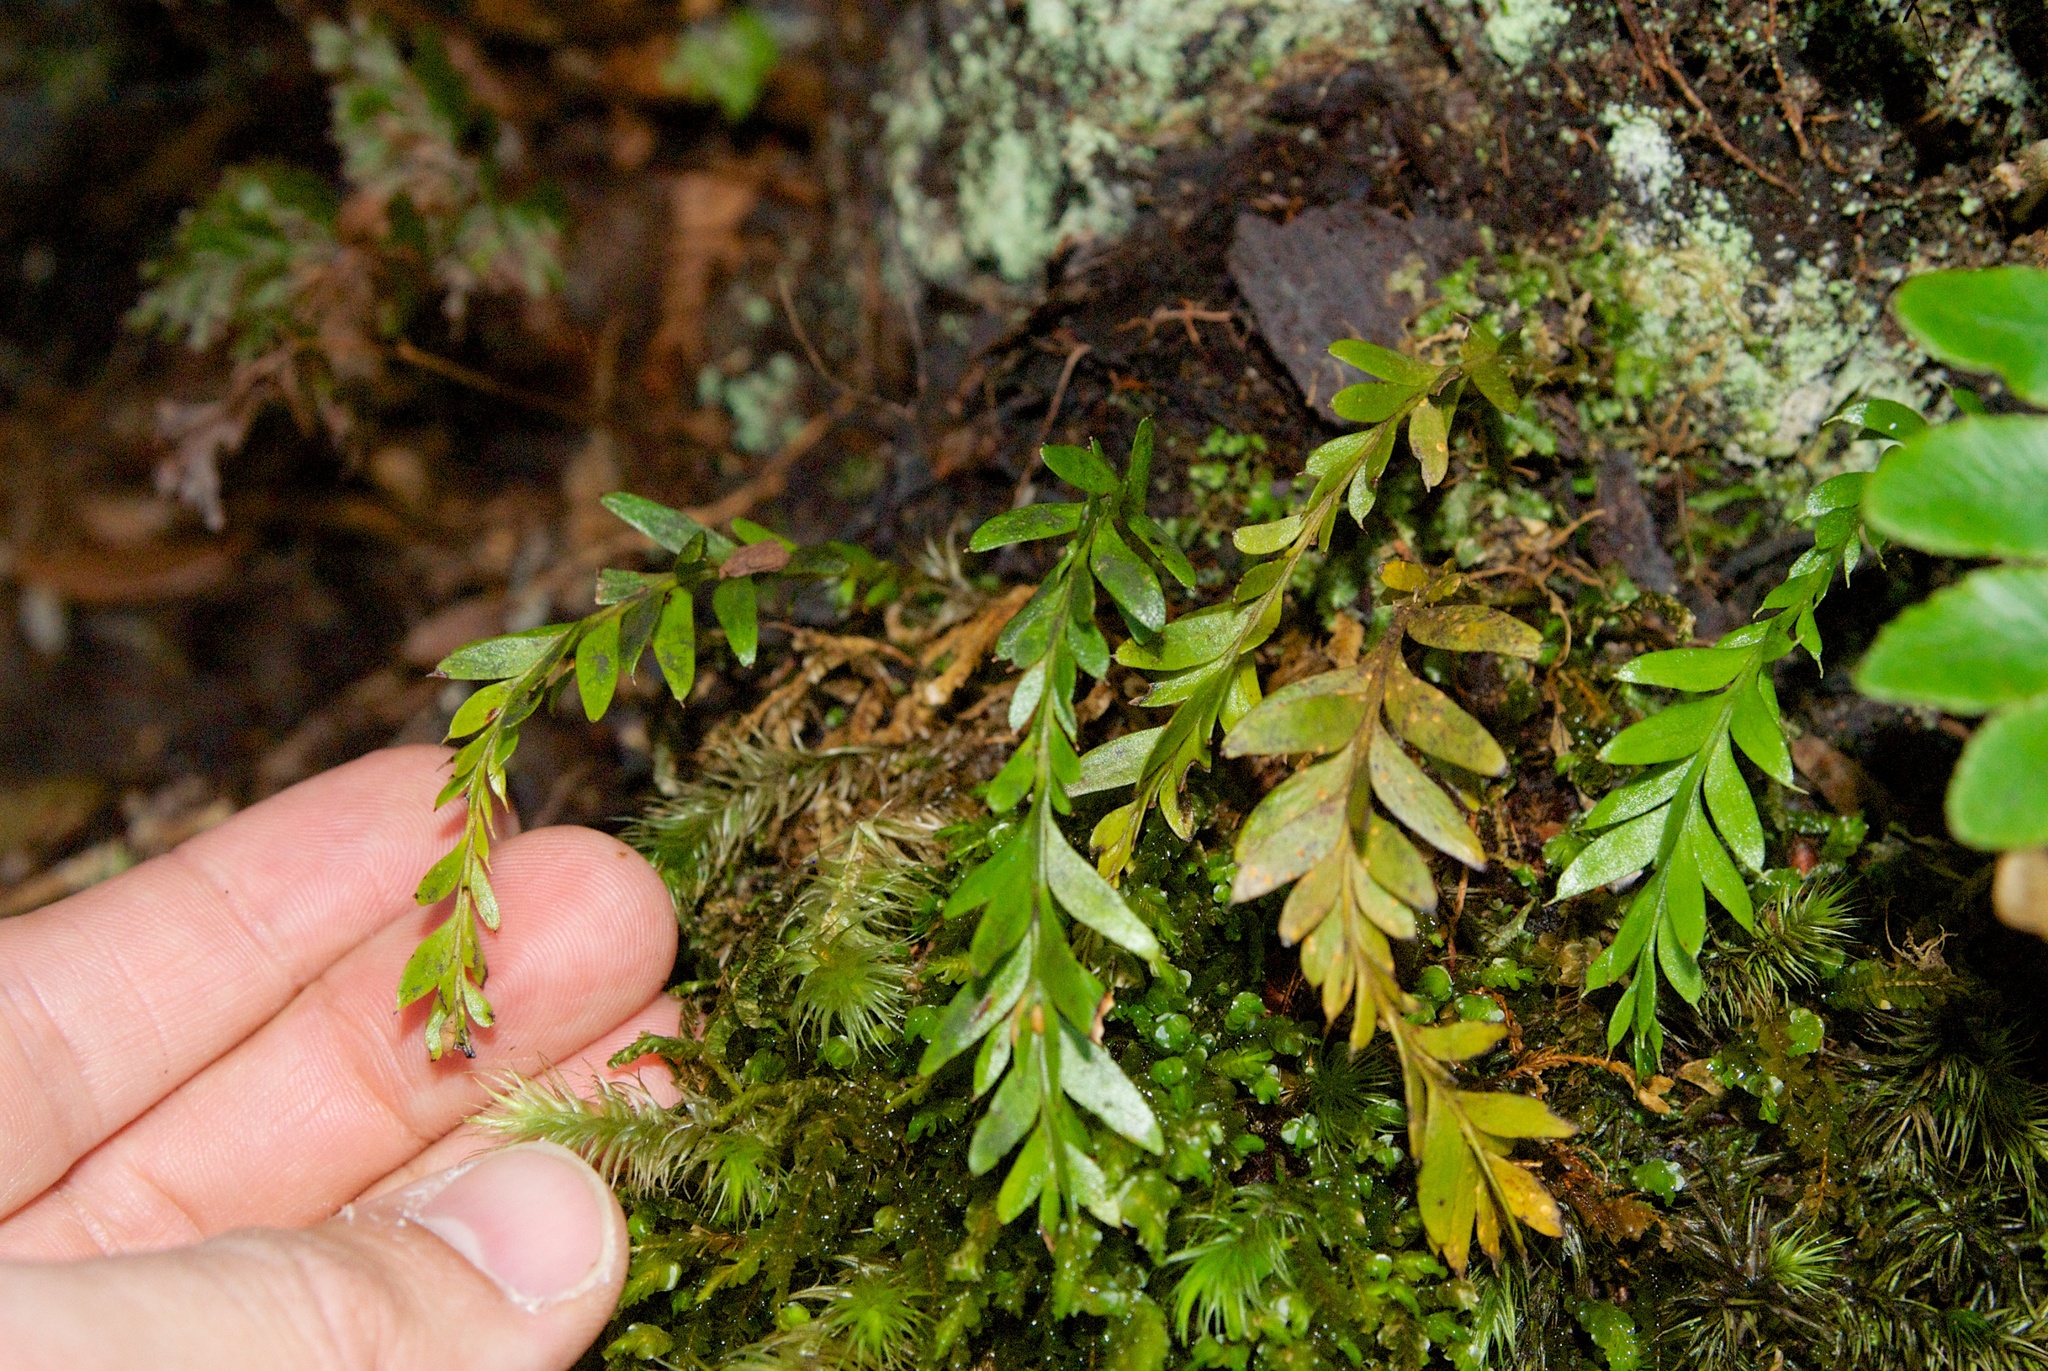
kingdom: Plantae
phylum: Tracheophyta
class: Polypodiopsida
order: Psilotales
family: Psilotaceae
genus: Tmesipteris
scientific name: Tmesipteris tannensis
